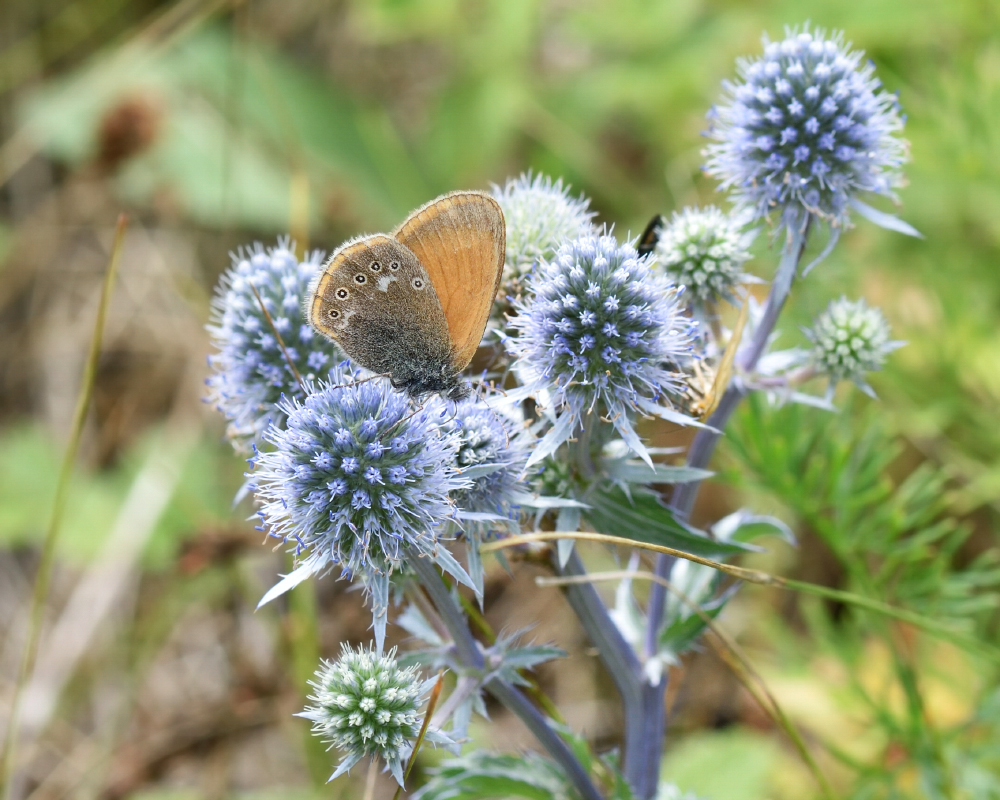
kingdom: Animalia
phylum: Arthropoda
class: Insecta
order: Lepidoptera
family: Nymphalidae
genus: Coenonympha
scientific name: Coenonympha iphis
